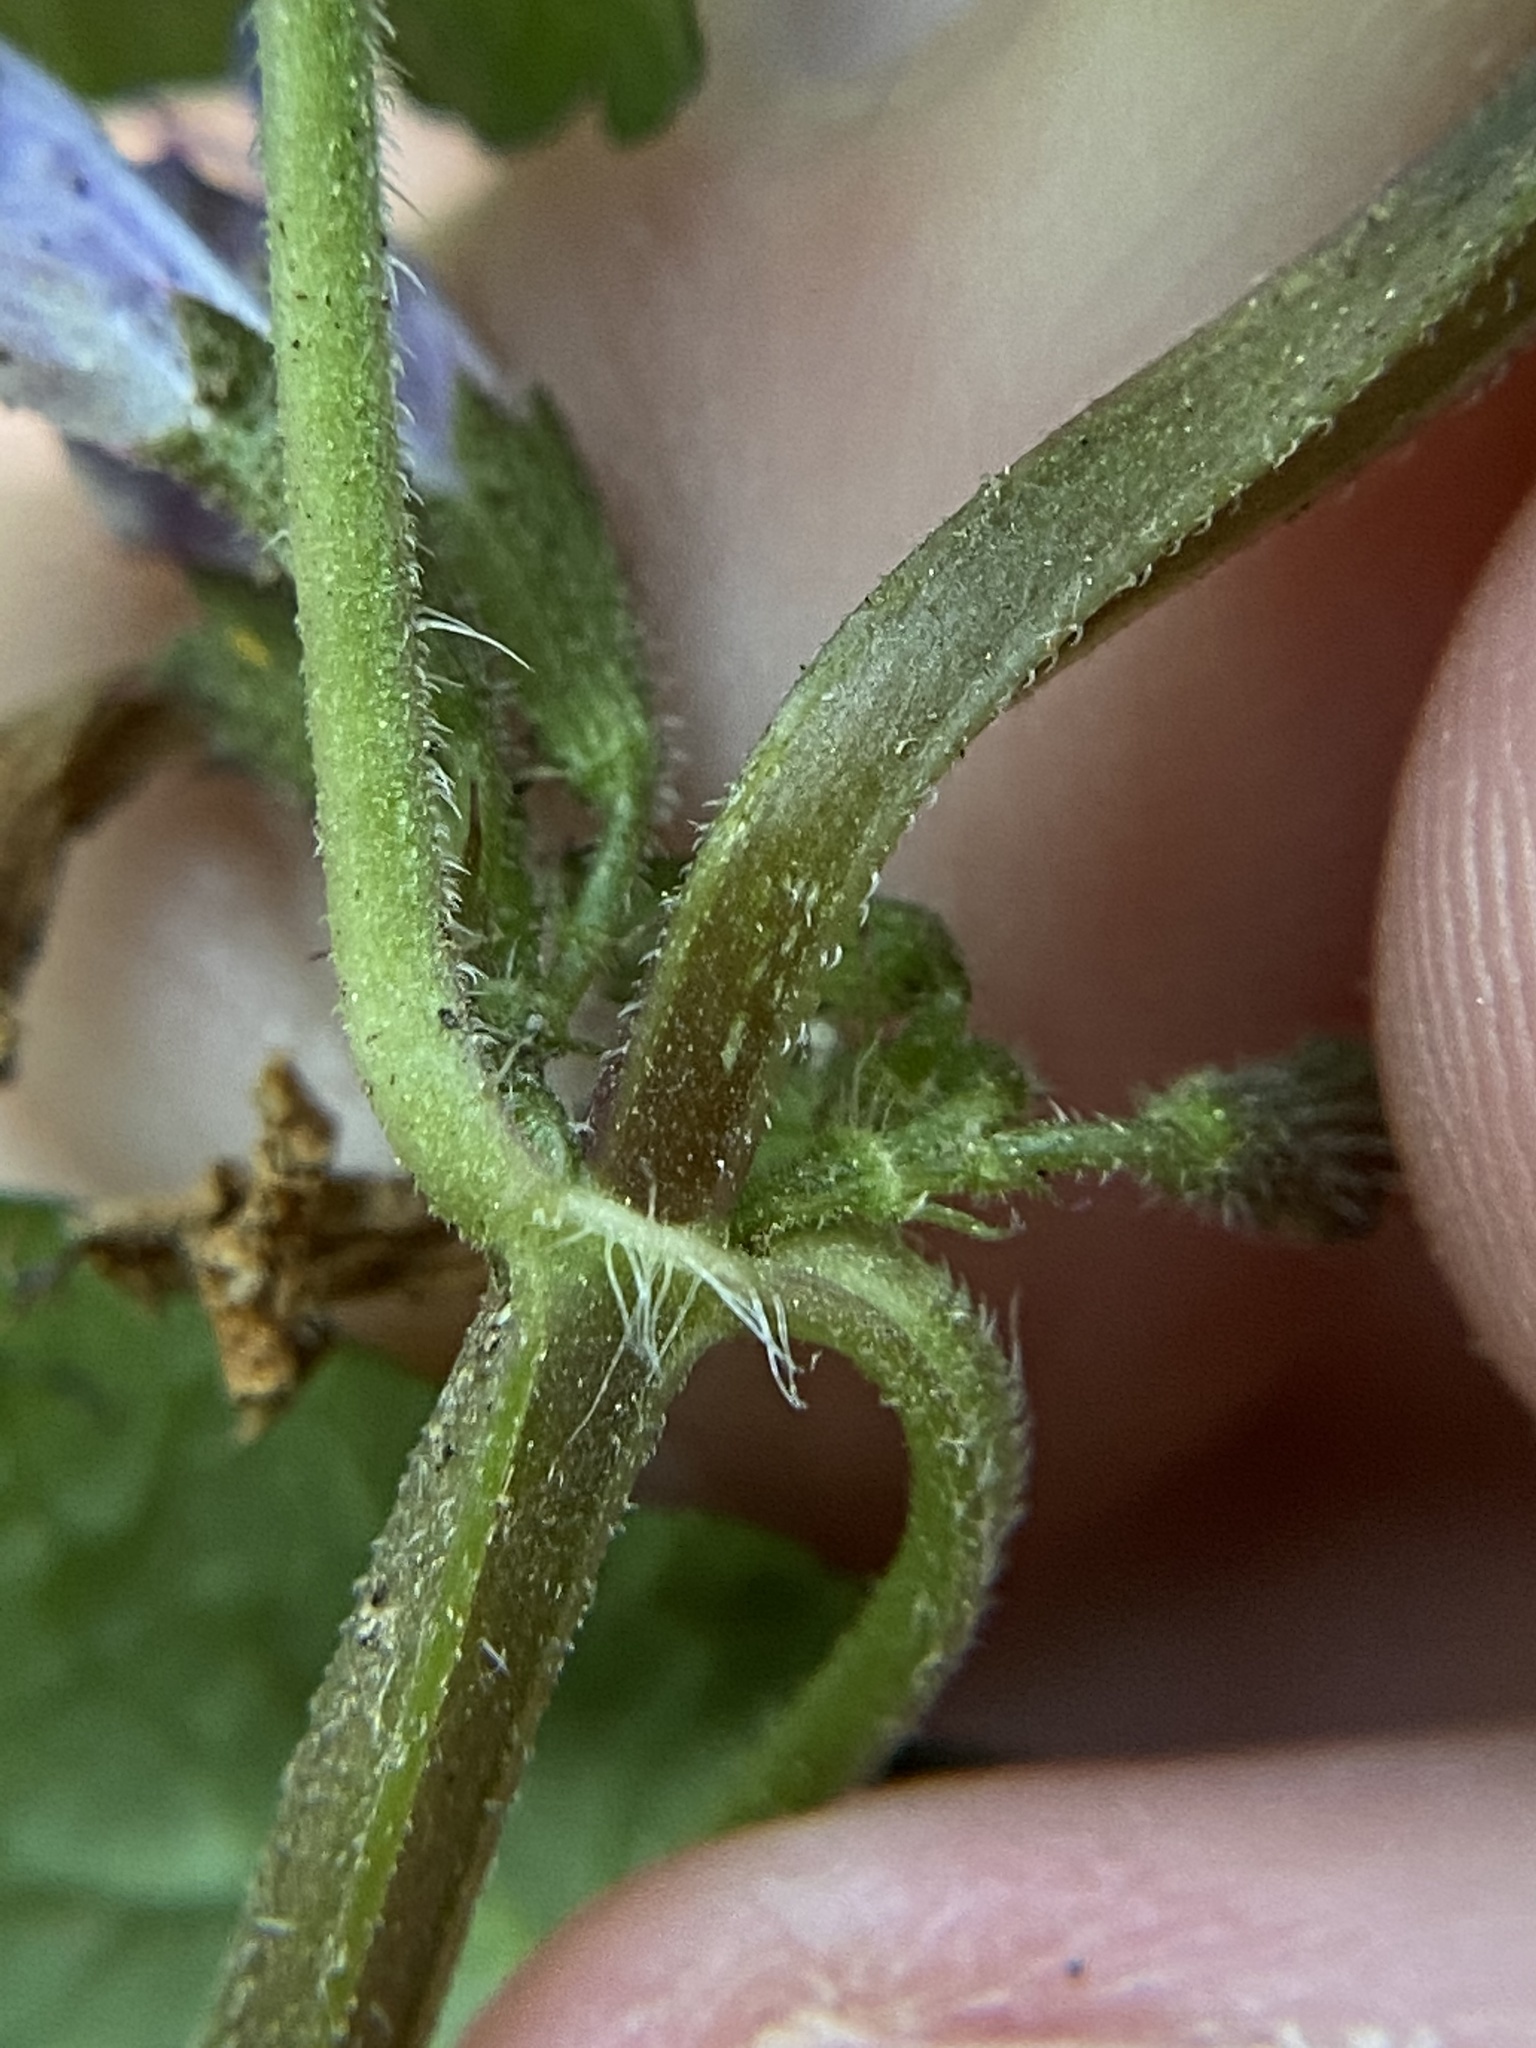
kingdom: Plantae
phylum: Tracheophyta
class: Magnoliopsida
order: Lamiales
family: Lamiaceae
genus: Glechoma
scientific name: Glechoma hederacea
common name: Ground ivy
